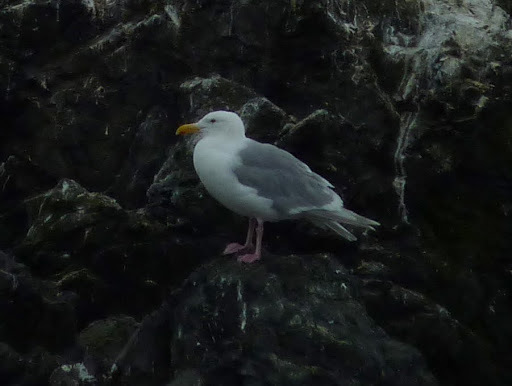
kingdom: Animalia
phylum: Chordata
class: Aves
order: Charadriiformes
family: Laridae
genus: Larus
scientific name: Larus glaucescens
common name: Glaucous-winged gull
